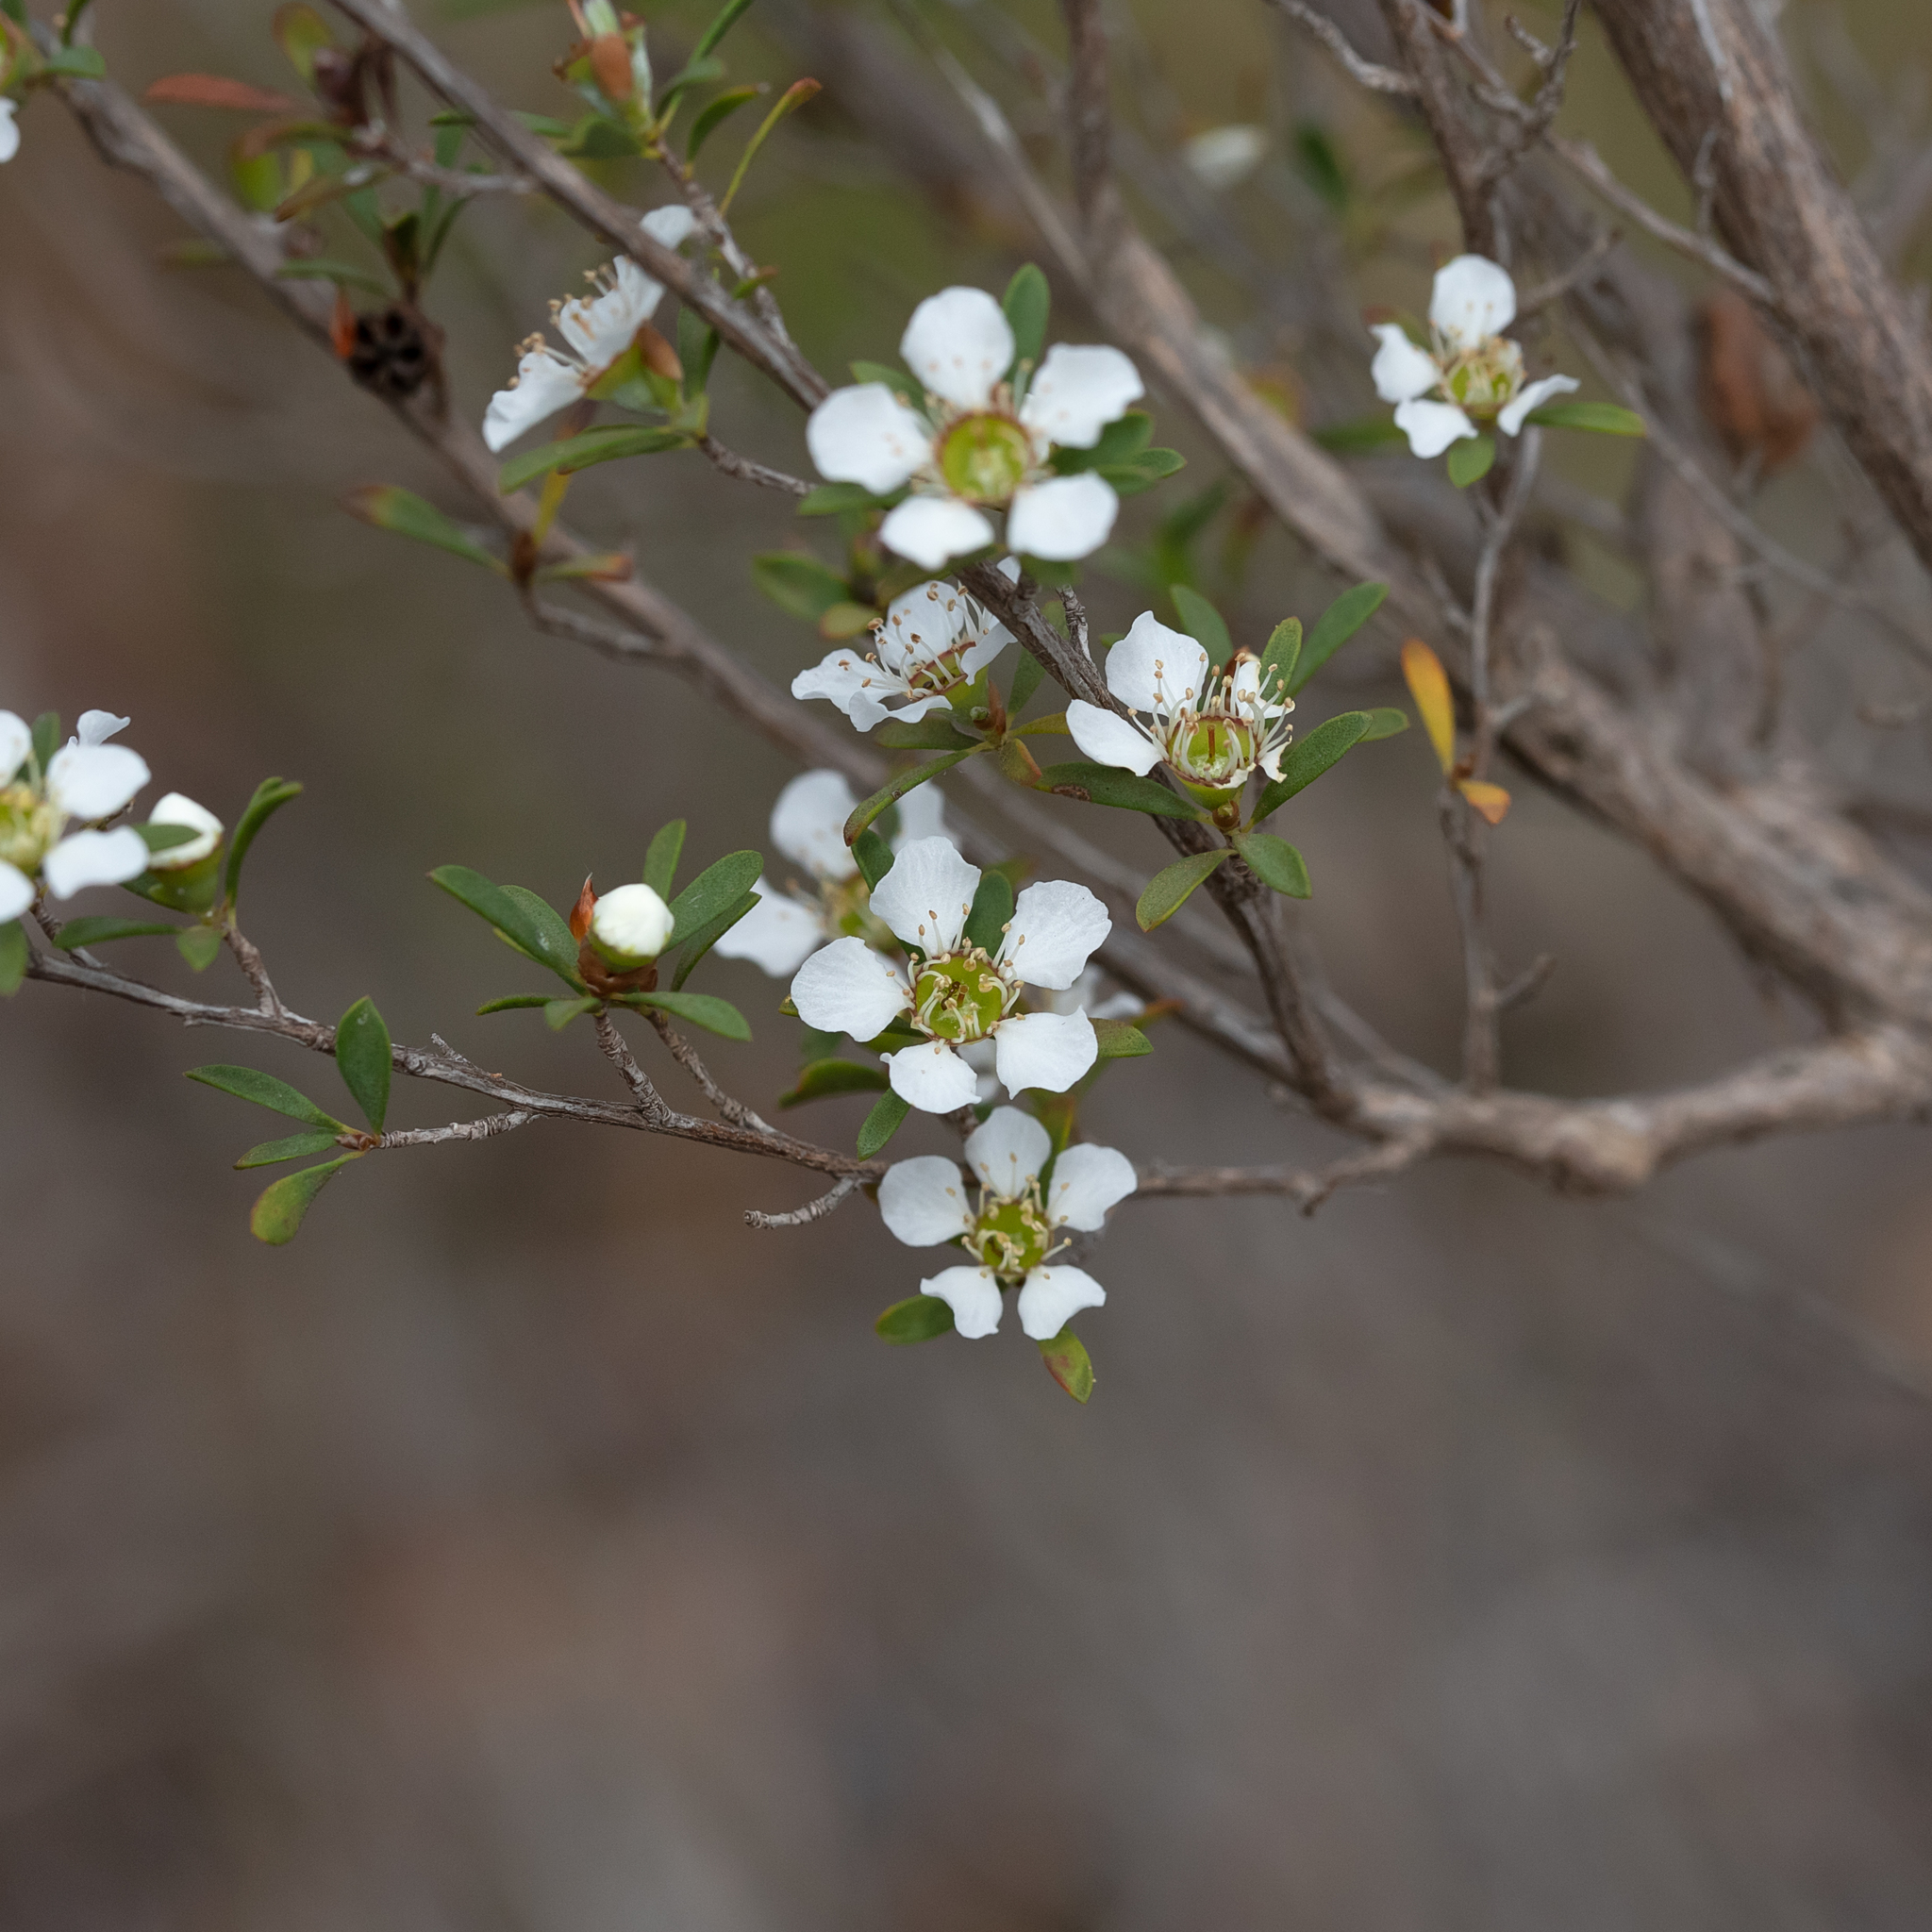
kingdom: Plantae
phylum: Tracheophyta
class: Magnoliopsida
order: Myrtales
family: Myrtaceae
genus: Leptospermum
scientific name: Leptospermum myrsinoides
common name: Heath teatree
